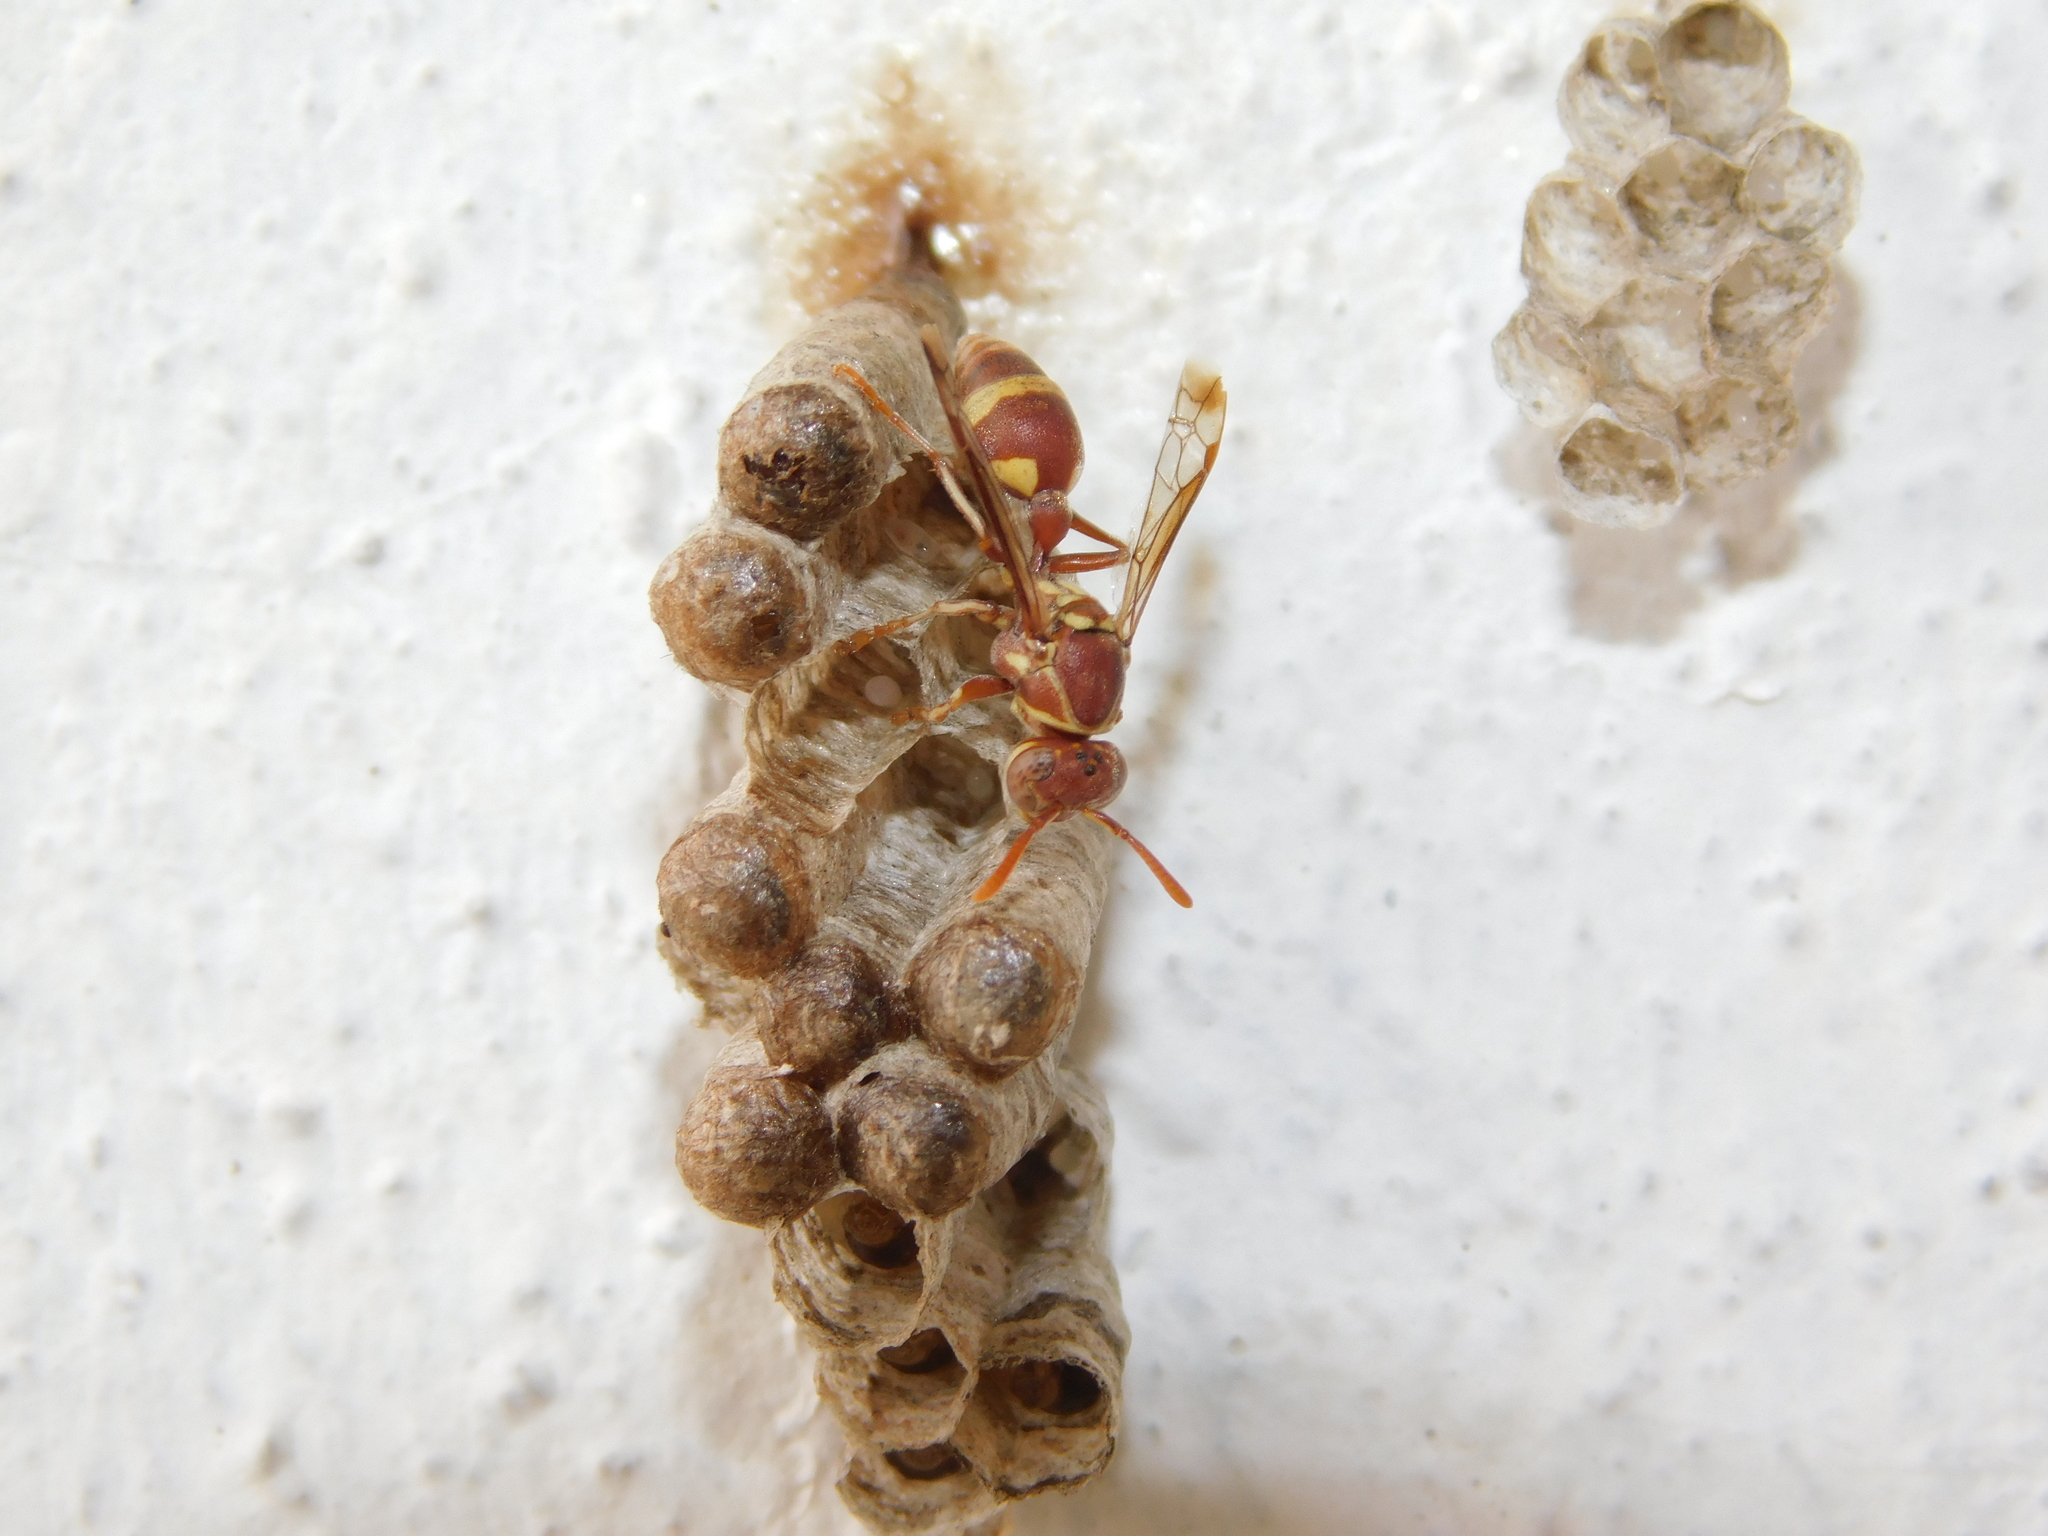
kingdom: Animalia
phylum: Arthropoda
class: Insecta
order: Hymenoptera
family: Vespidae
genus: Ropalidia
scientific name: Ropalidia variegata
